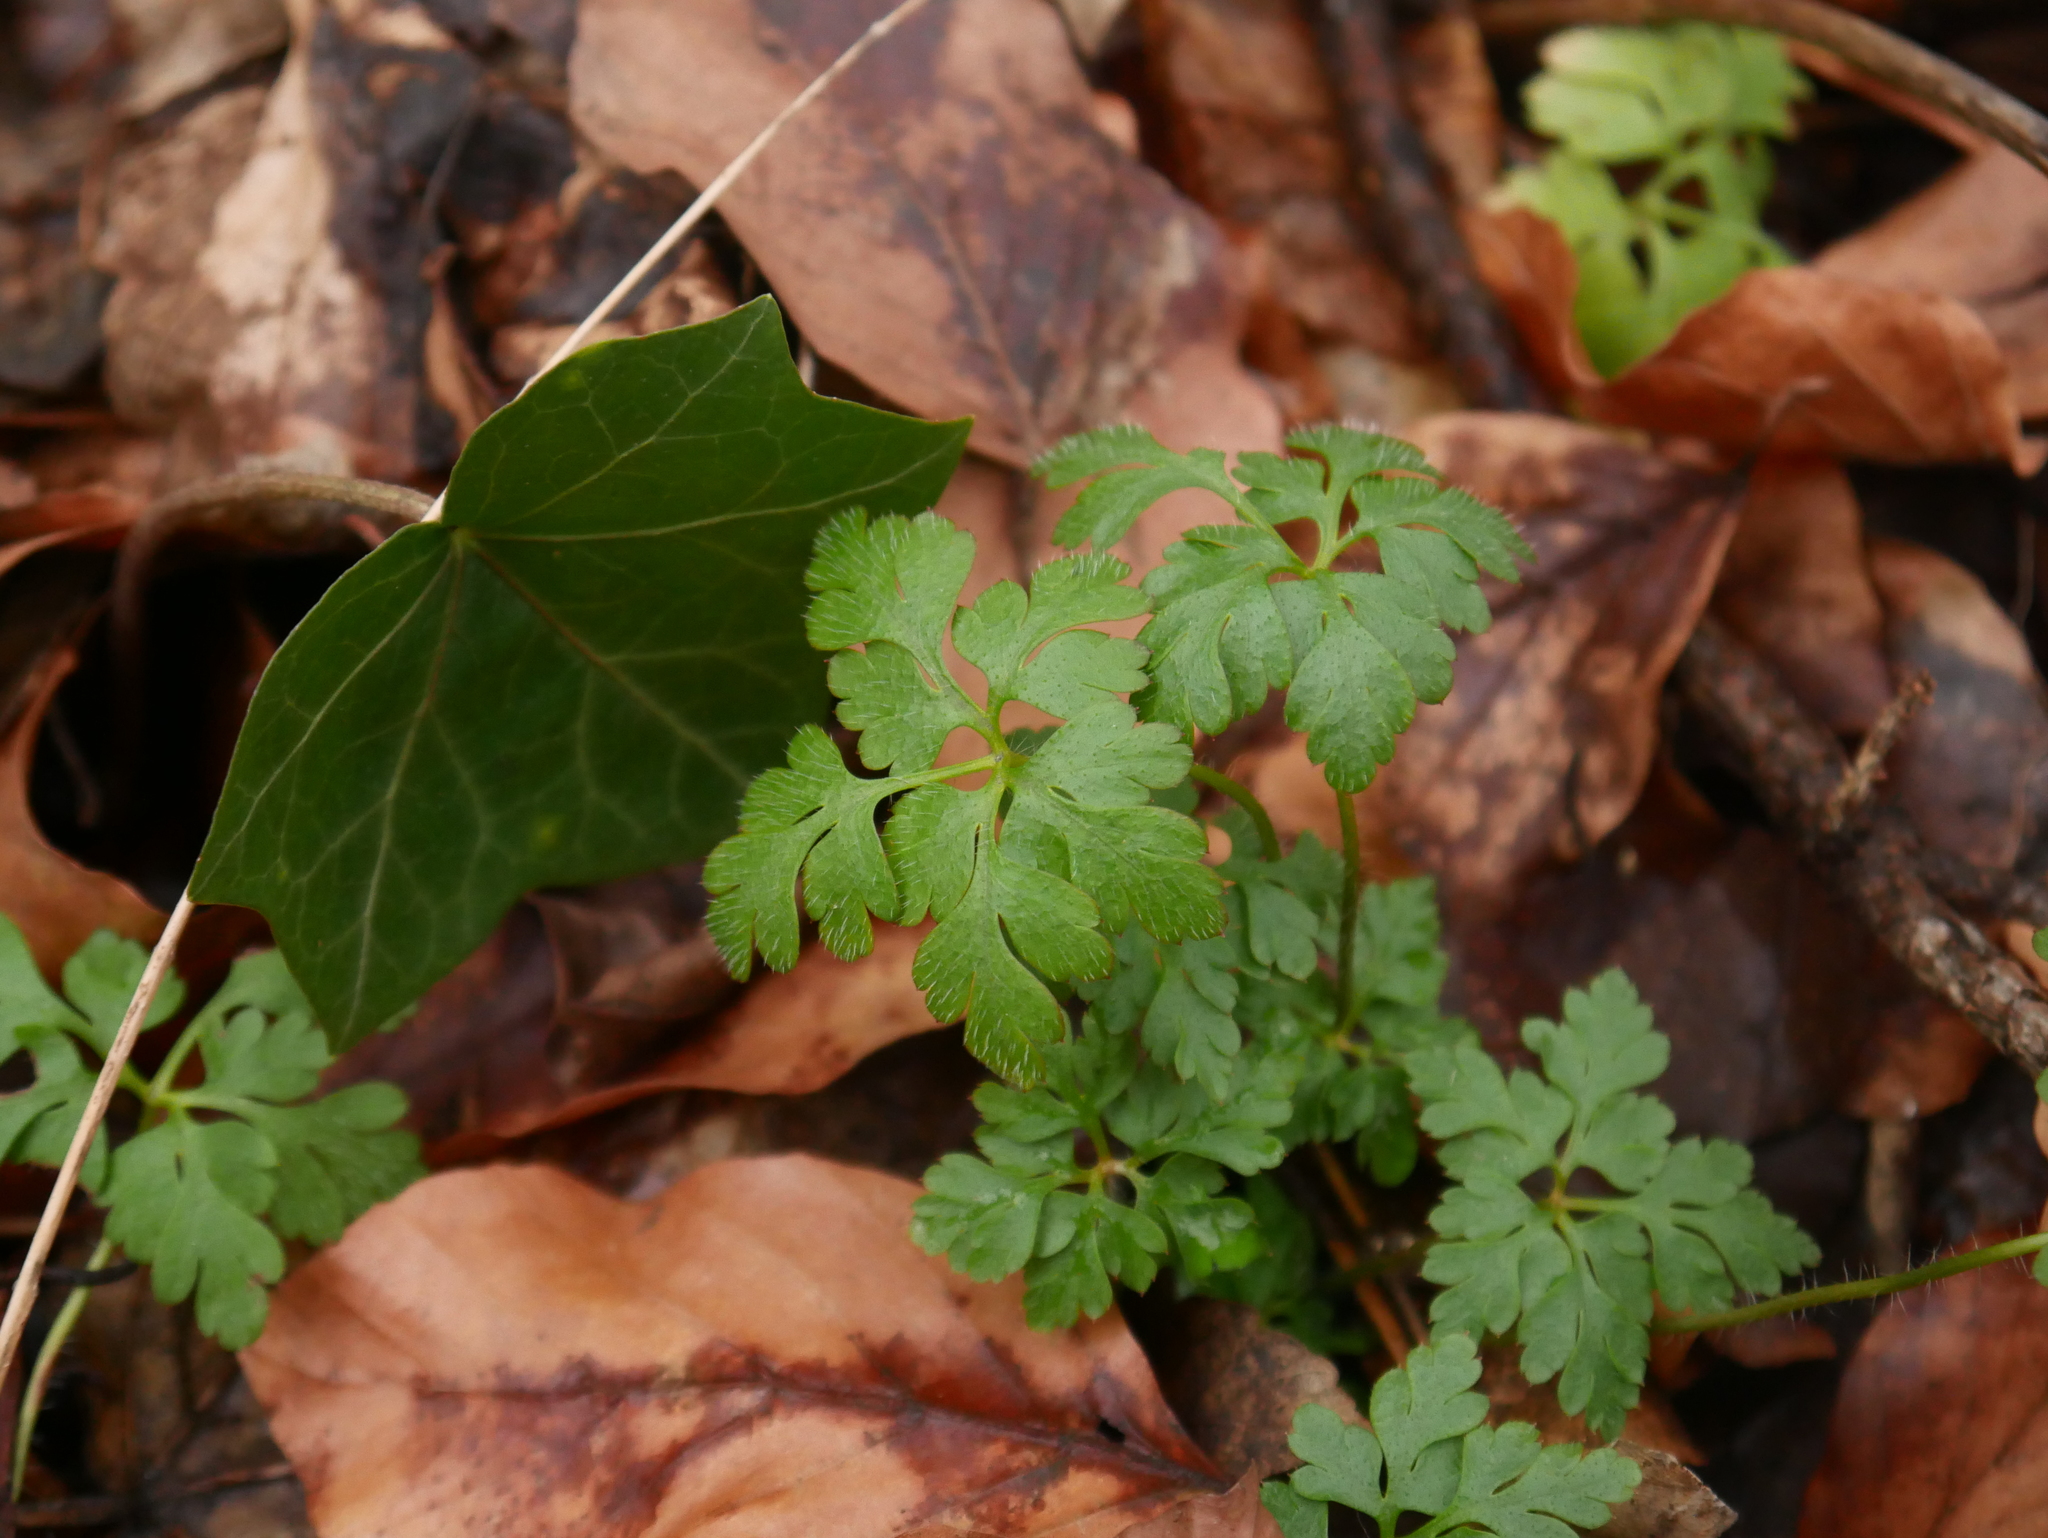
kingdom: Plantae
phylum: Tracheophyta
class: Magnoliopsida
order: Geraniales
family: Geraniaceae
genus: Geranium
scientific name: Geranium robertianum
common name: Herb-robert
